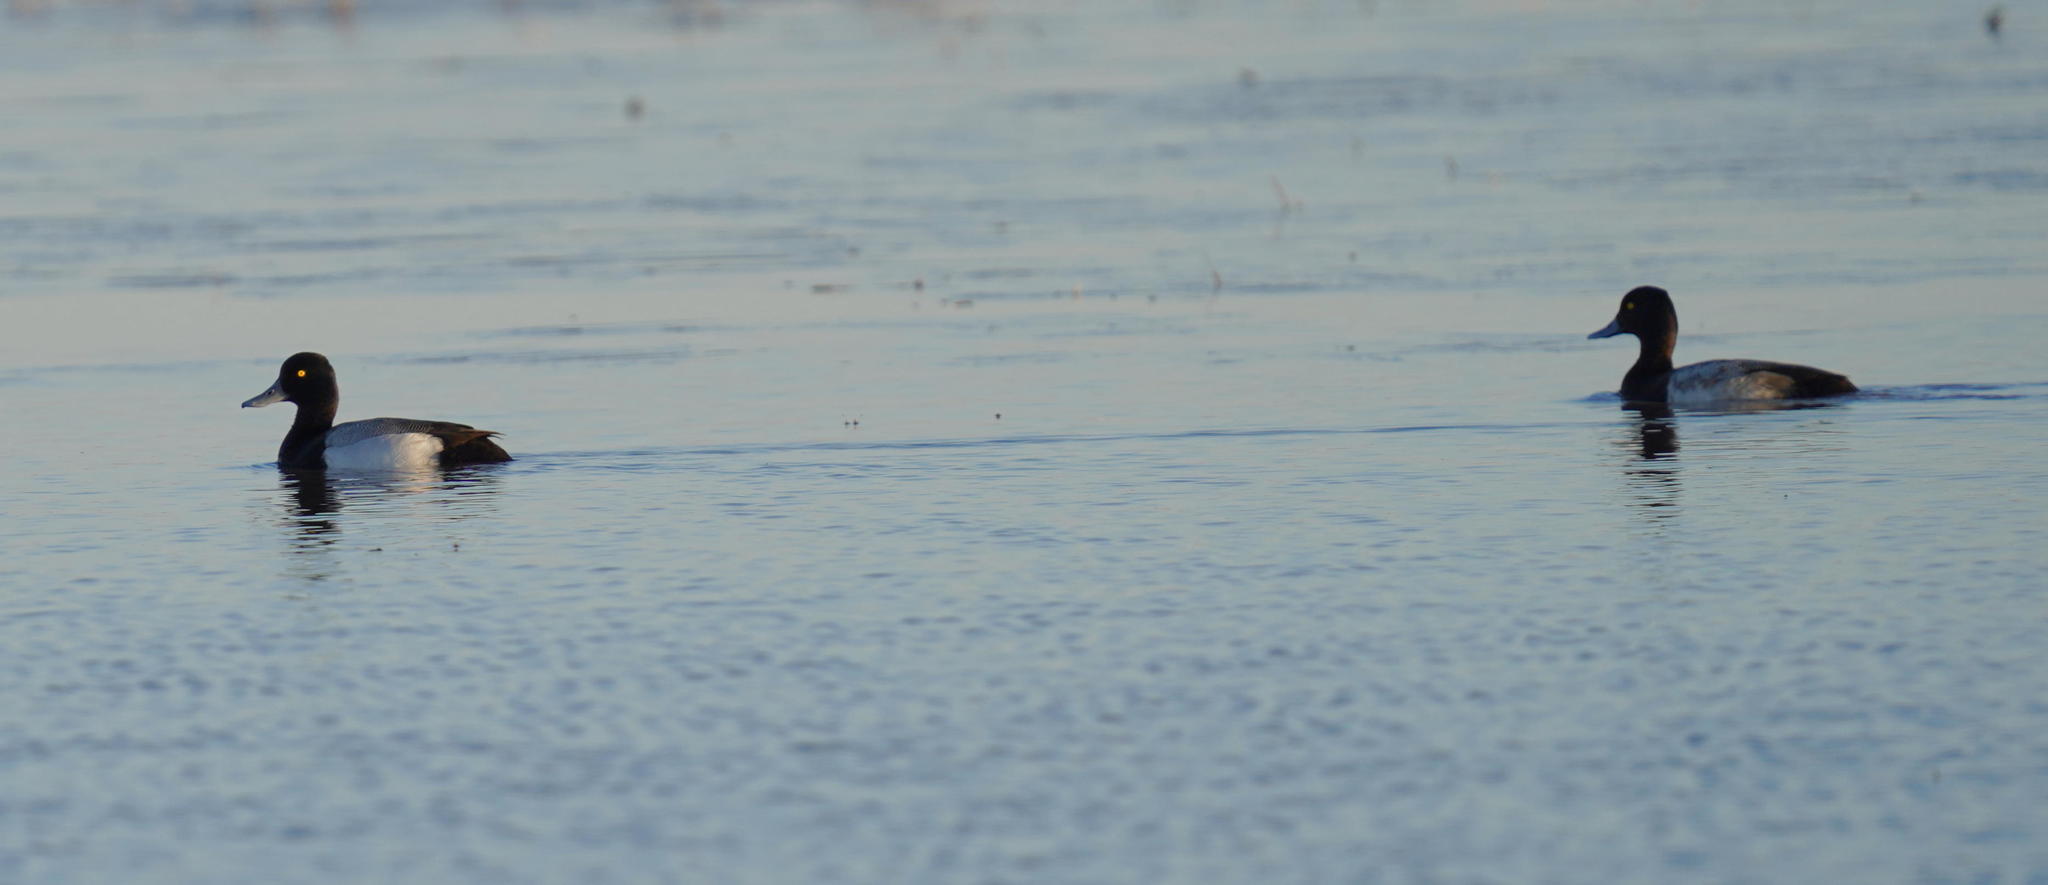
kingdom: Animalia
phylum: Chordata
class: Aves
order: Anseriformes
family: Anatidae
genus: Aythya
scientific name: Aythya affinis
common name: Lesser scaup
